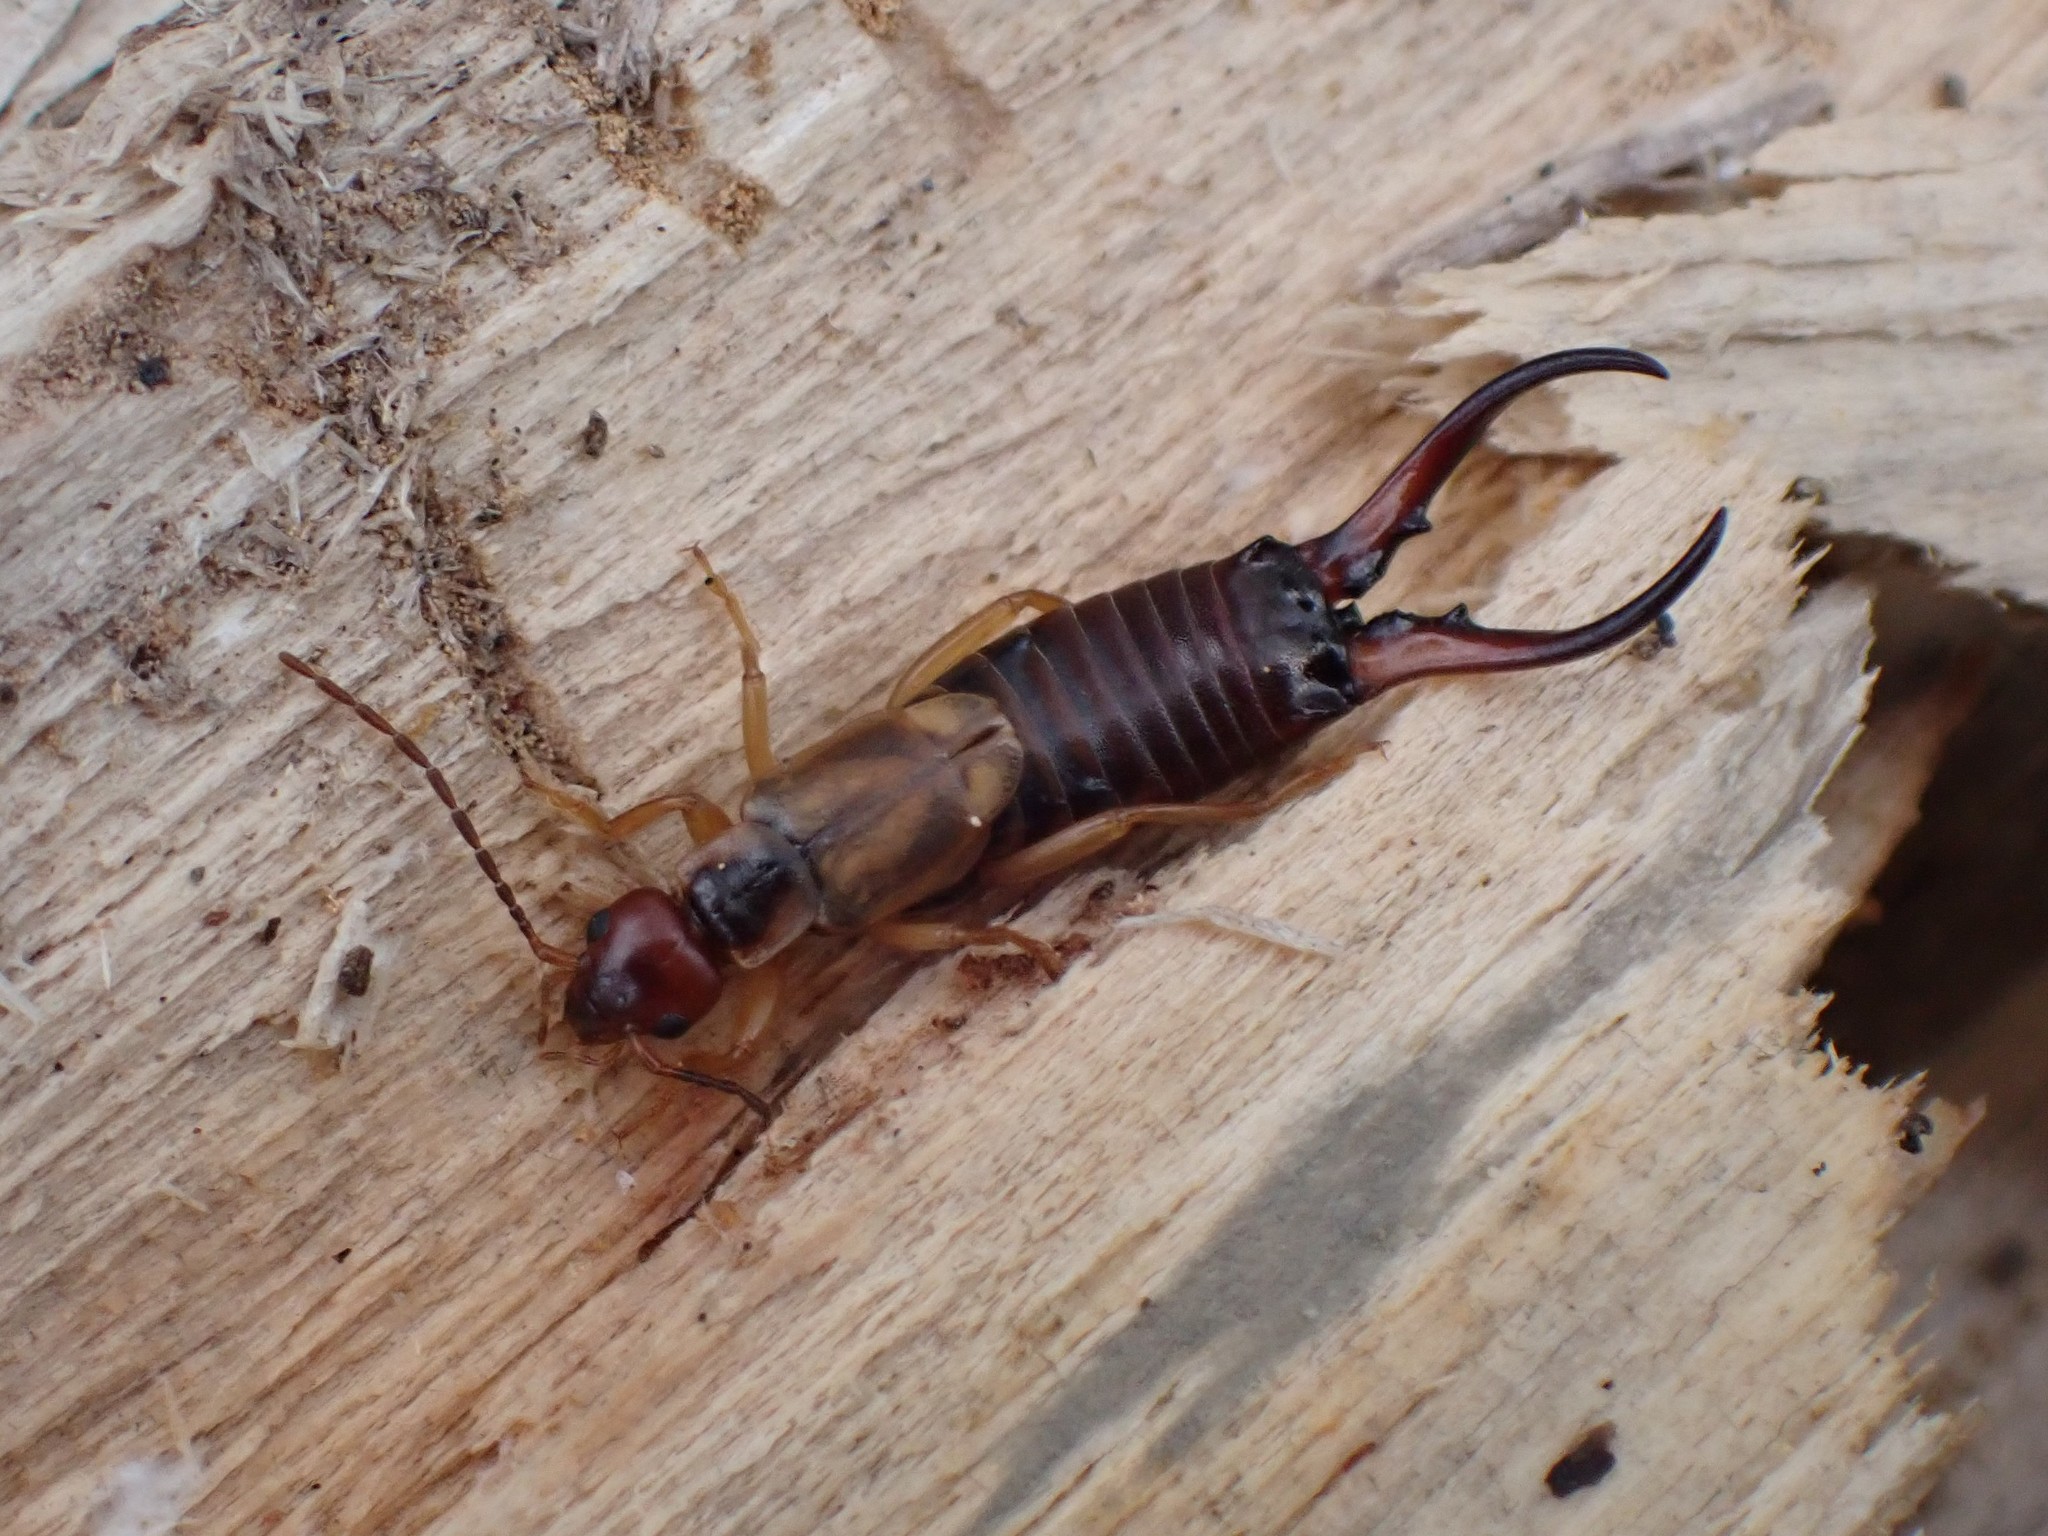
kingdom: Animalia
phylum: Arthropoda
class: Insecta
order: Dermaptera
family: Forficulidae
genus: Forficula
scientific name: Forficula
